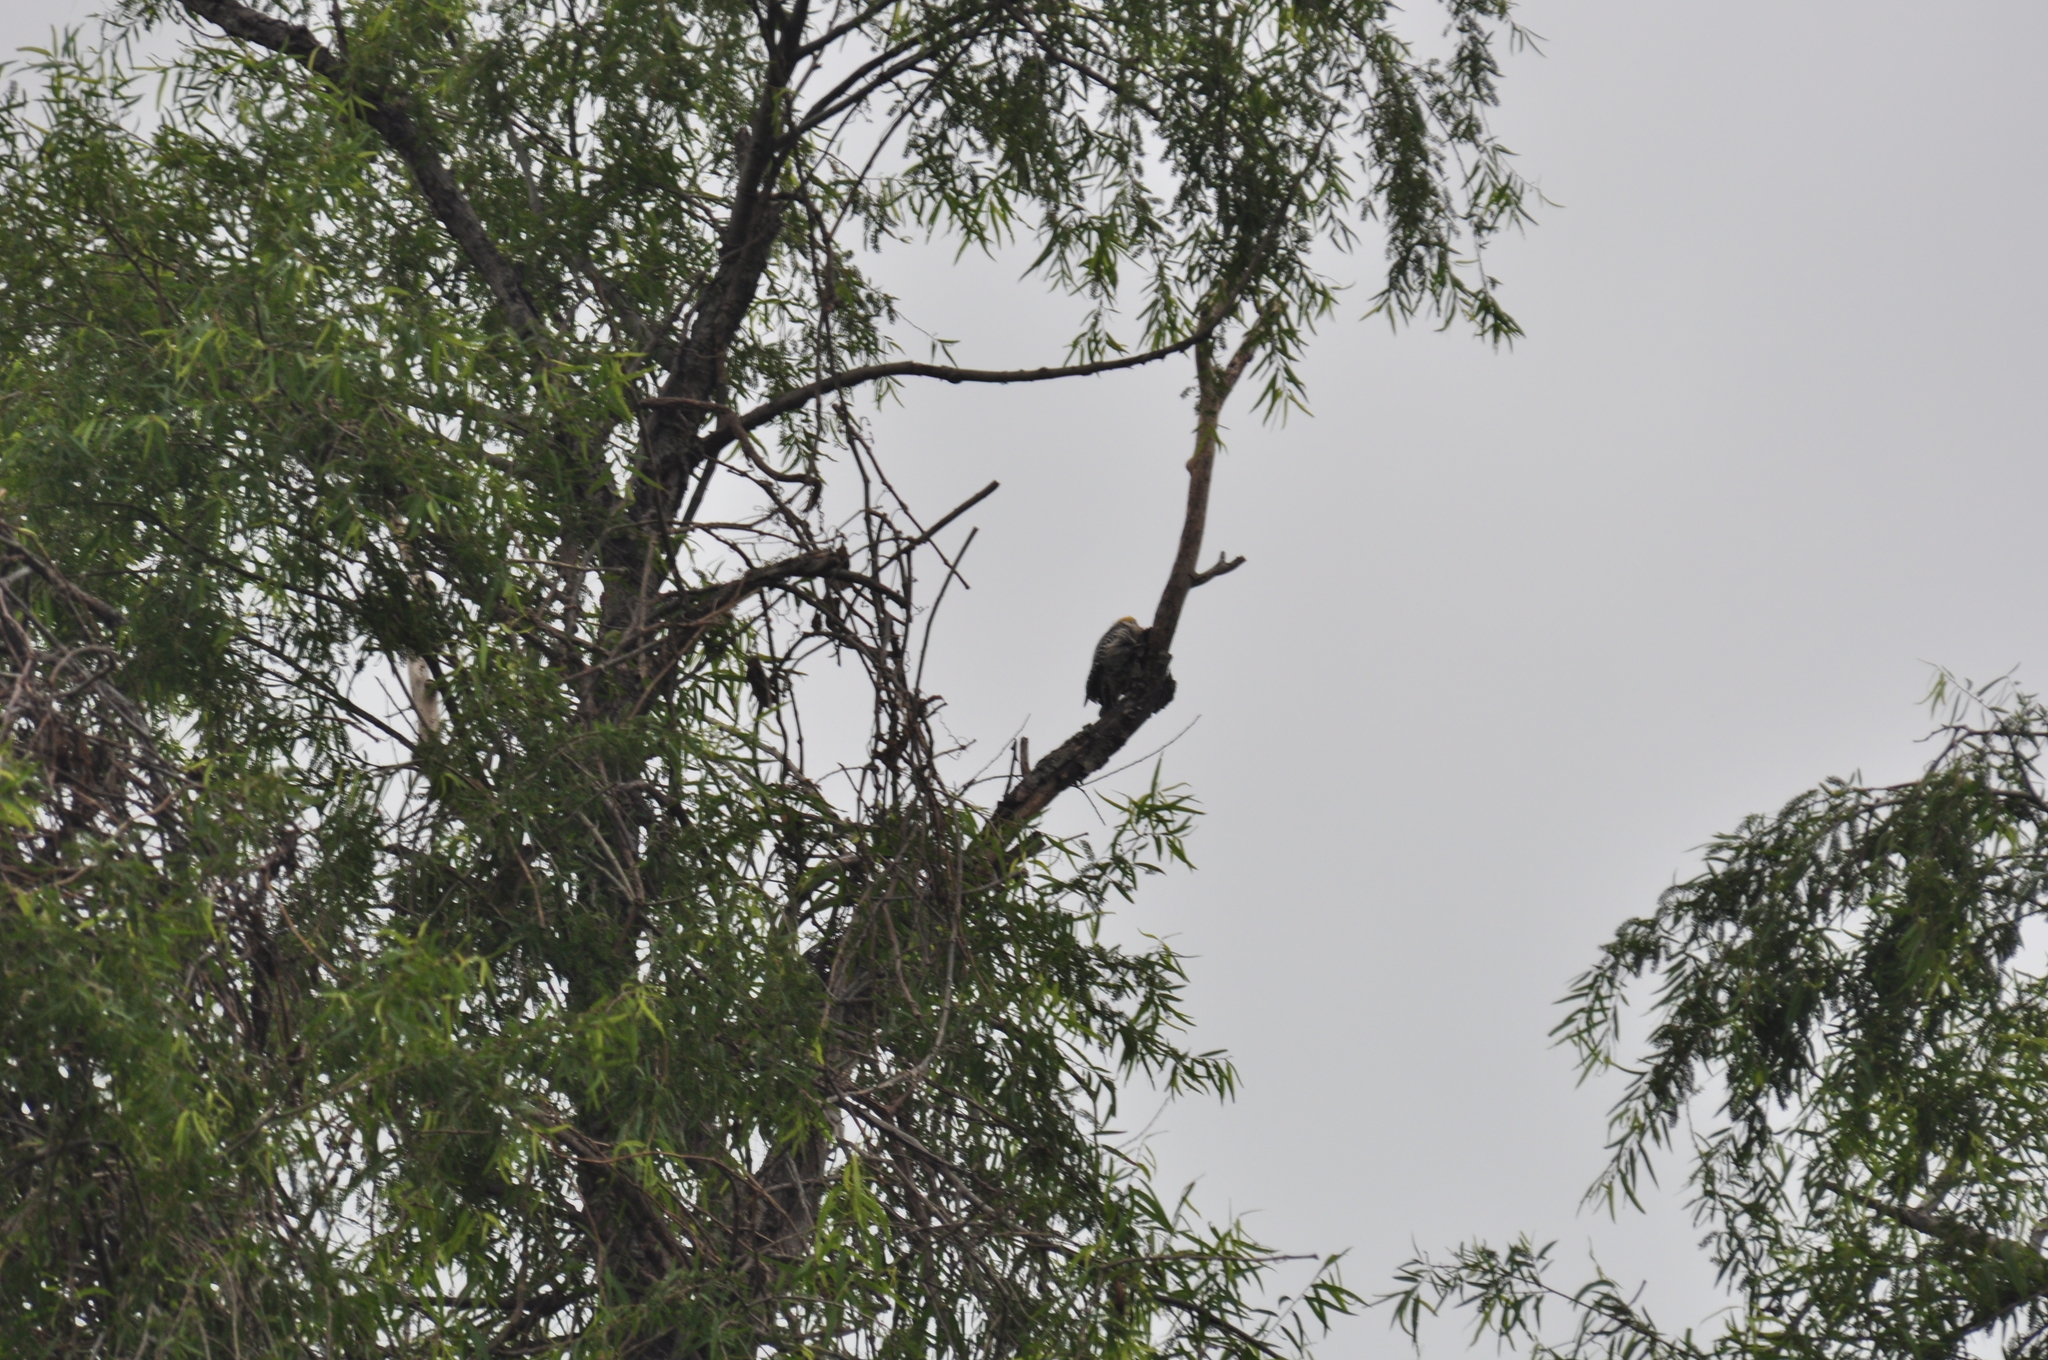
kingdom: Animalia
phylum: Chordata
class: Aves
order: Piciformes
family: Picidae
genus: Melanerpes
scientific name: Melanerpes aurifrons
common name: Golden-fronted woodpecker
